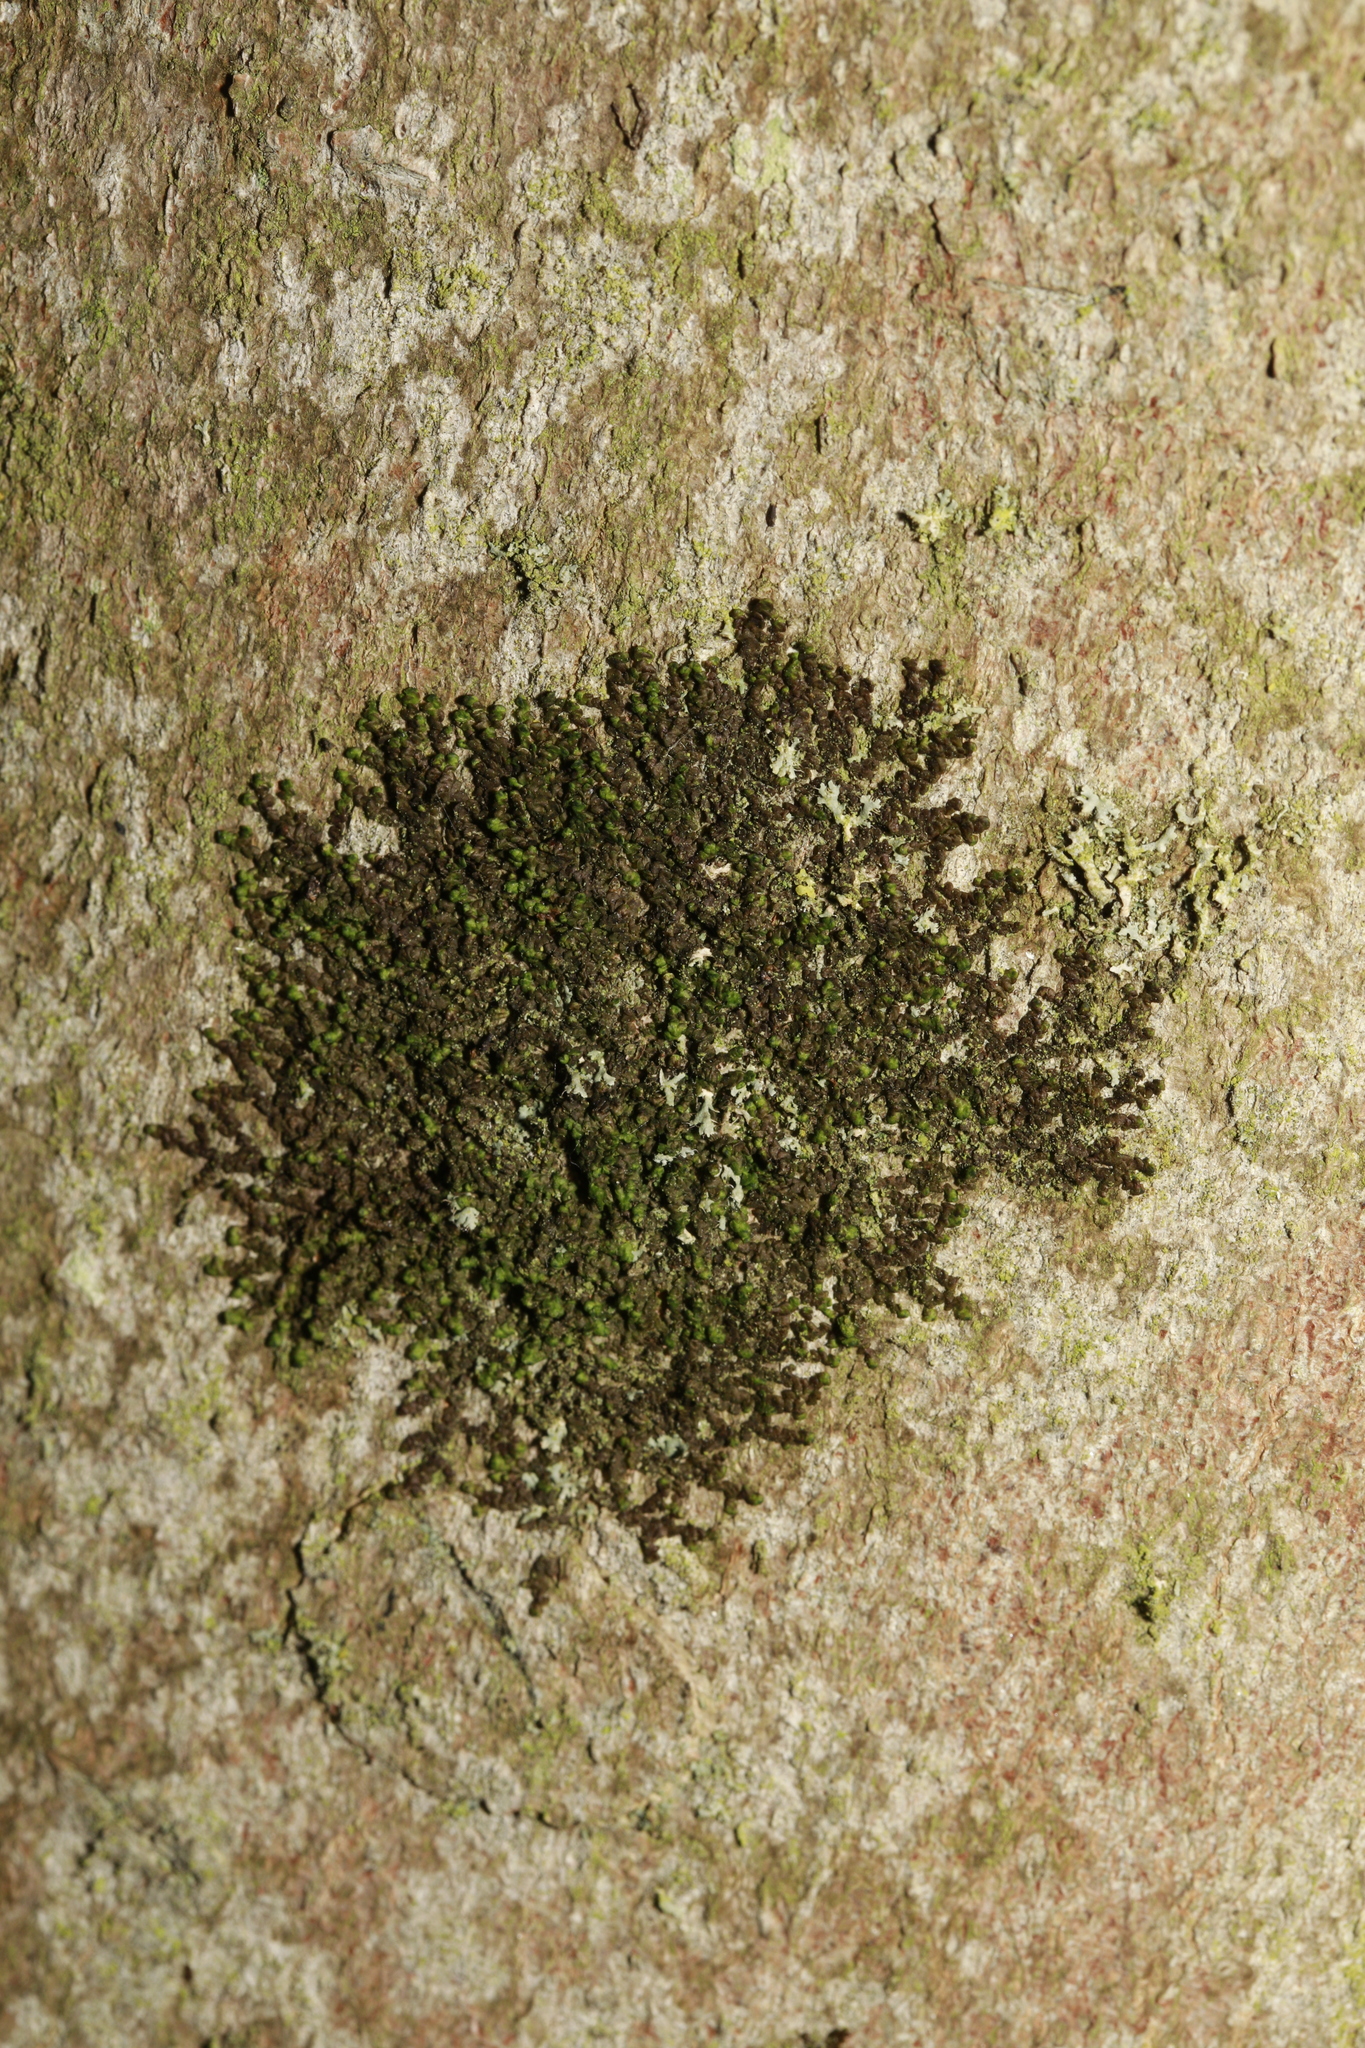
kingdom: Plantae
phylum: Marchantiophyta
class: Jungermanniopsida
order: Porellales
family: Frullaniaceae
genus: Frullania
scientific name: Frullania dilatata
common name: Dilated scalewort
